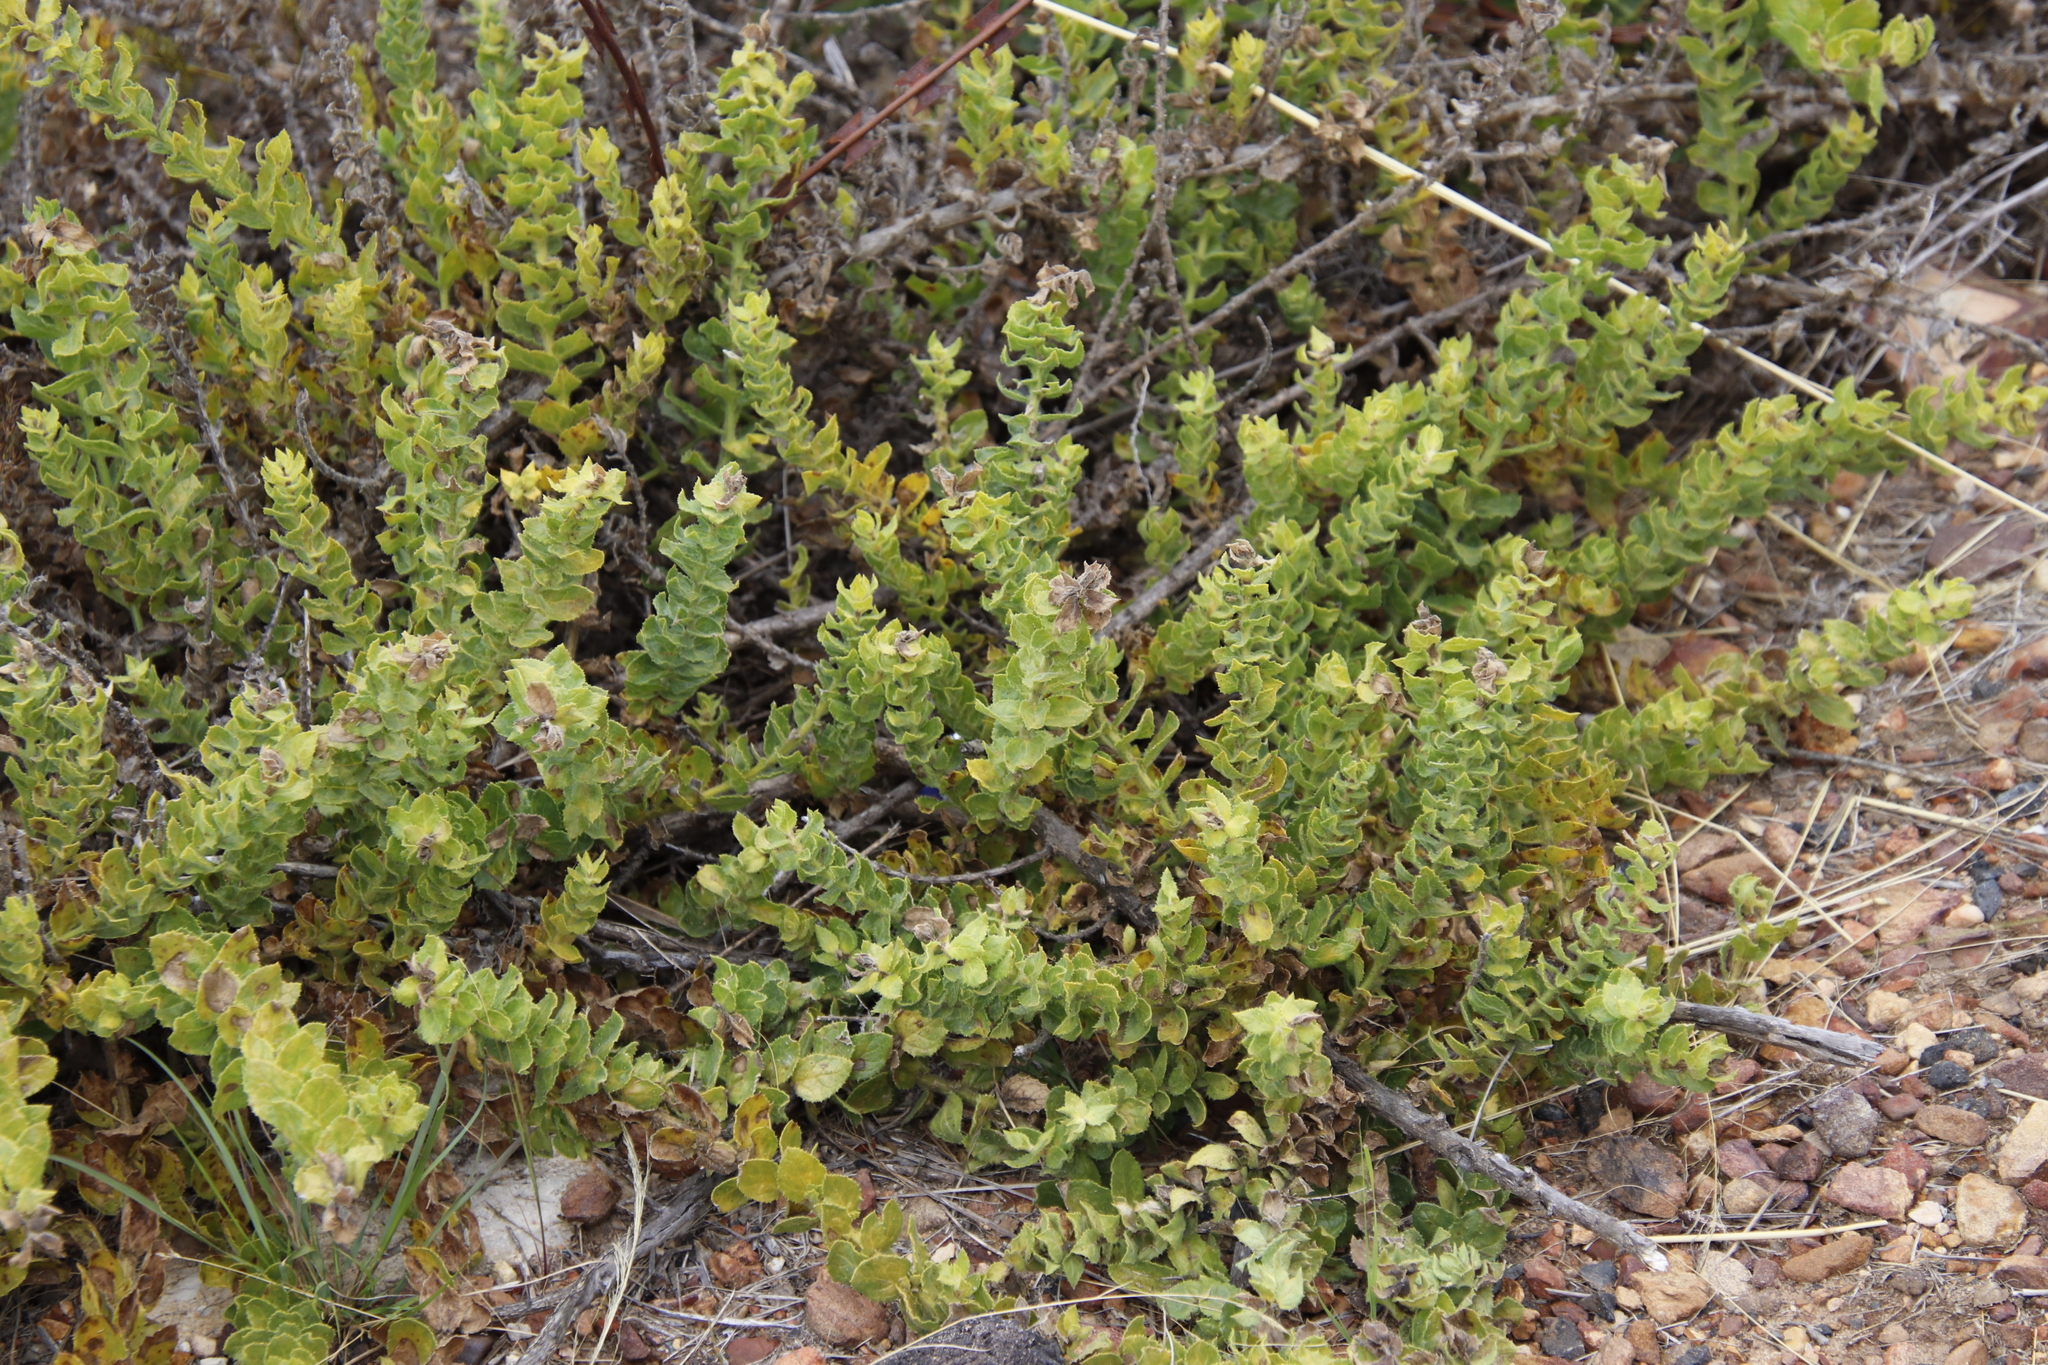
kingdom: Plantae
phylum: Tracheophyta
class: Magnoliopsida
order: Lamiales
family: Scrophulariaceae
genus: Oftia
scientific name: Oftia africana
